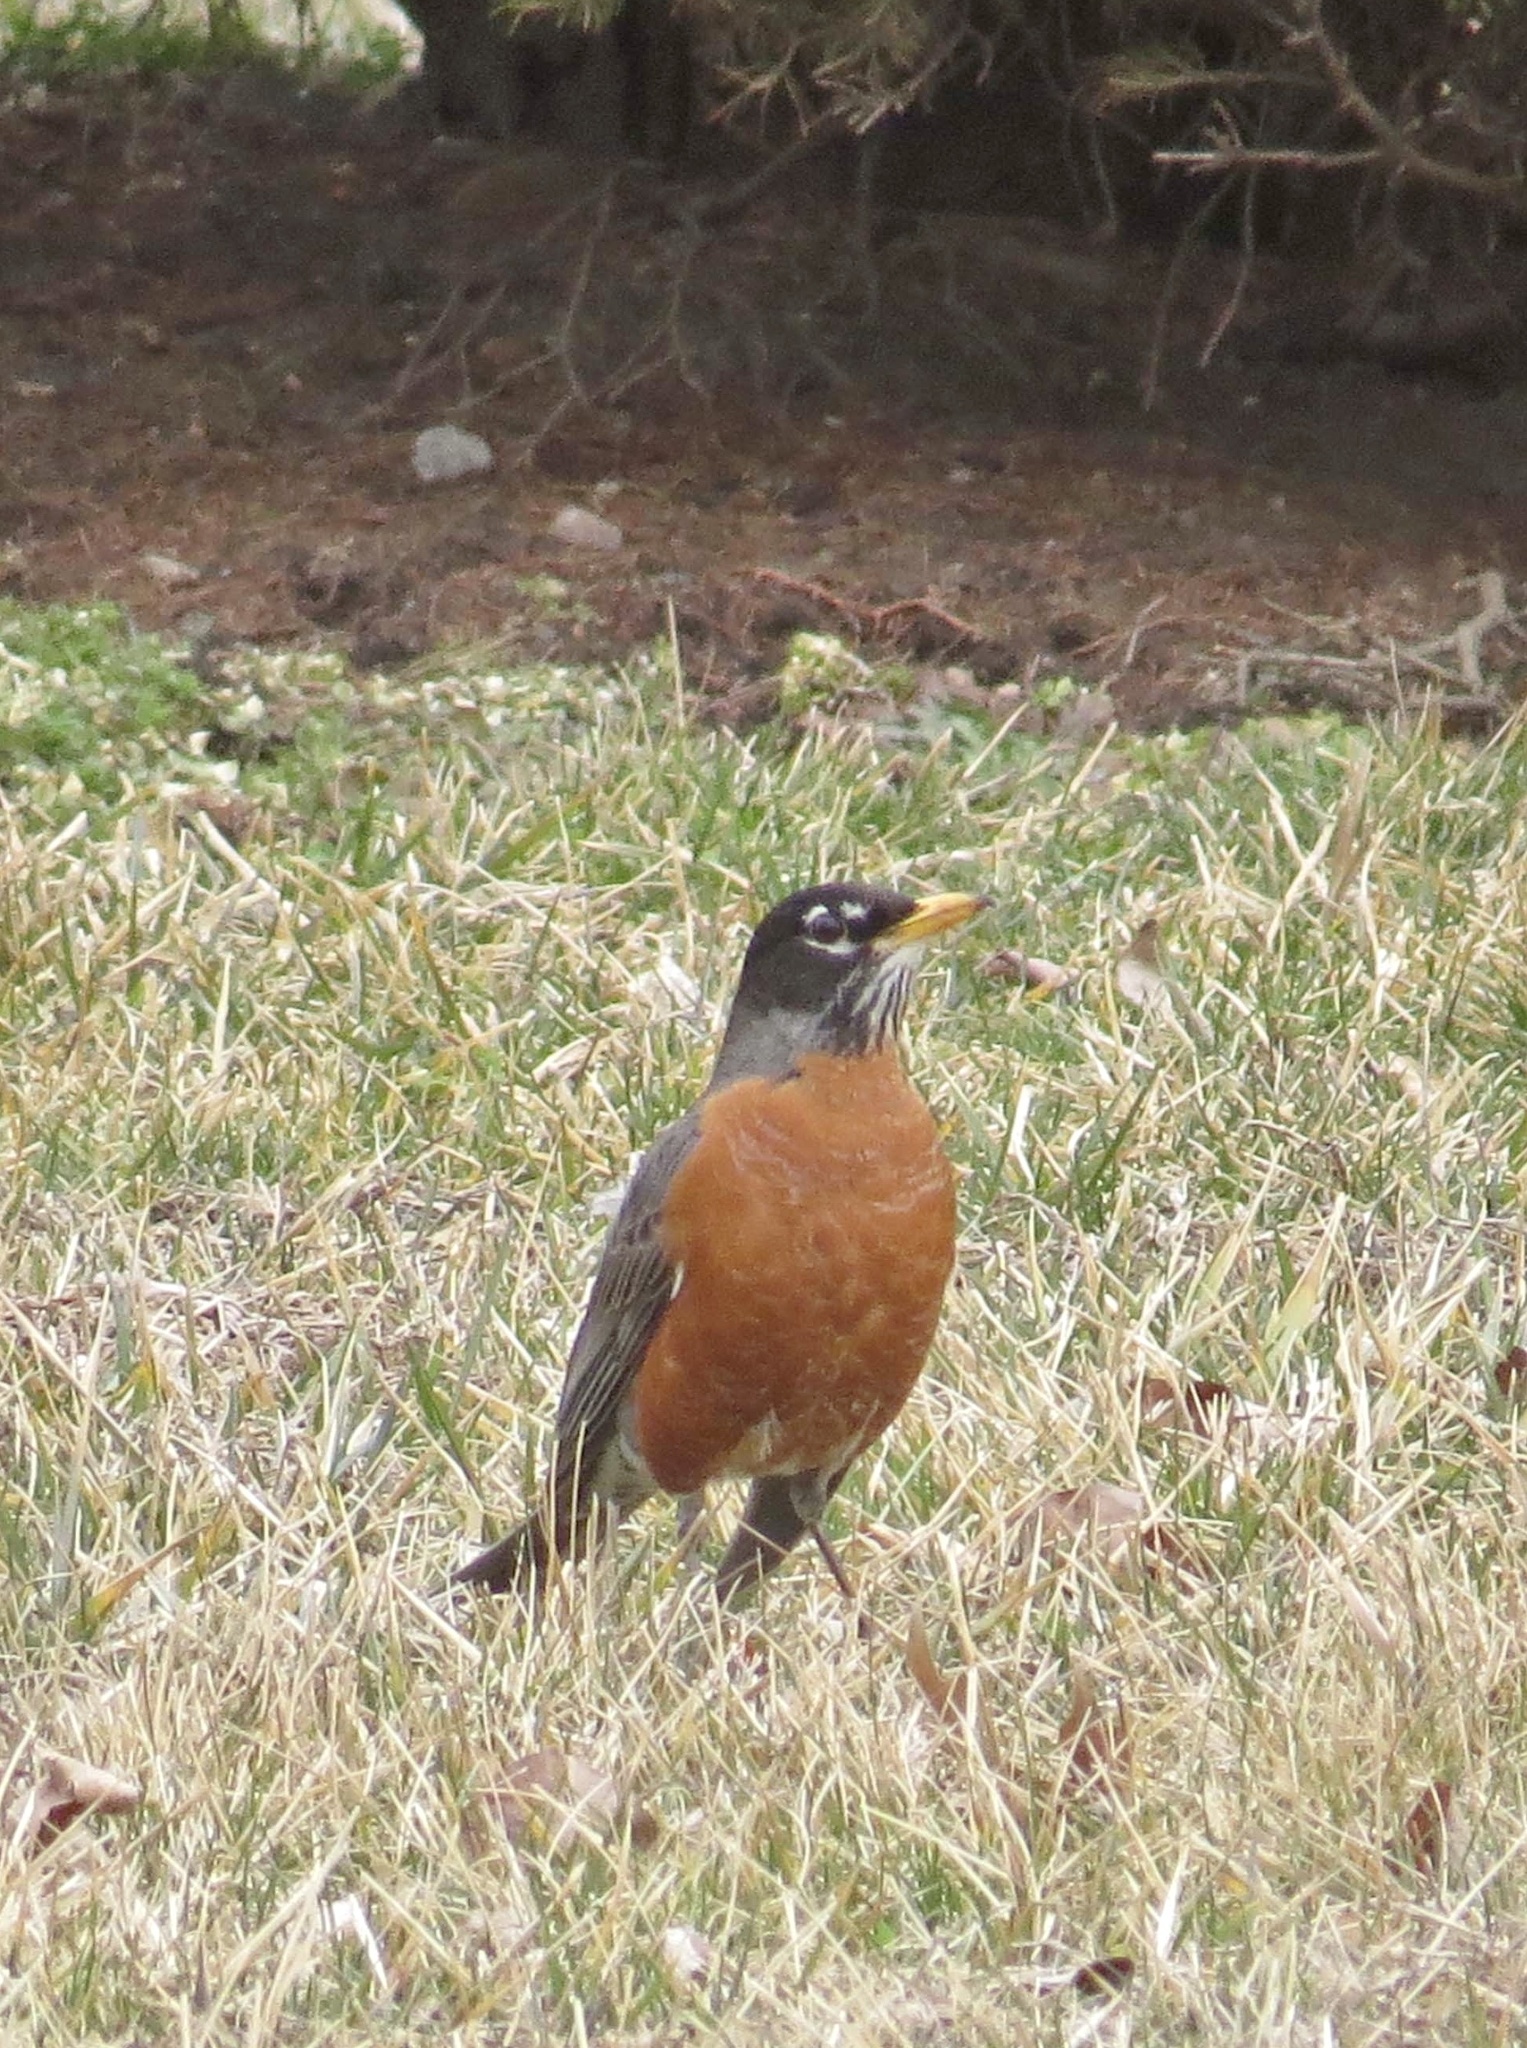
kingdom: Animalia
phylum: Chordata
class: Aves
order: Passeriformes
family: Turdidae
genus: Turdus
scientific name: Turdus migratorius
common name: American robin
